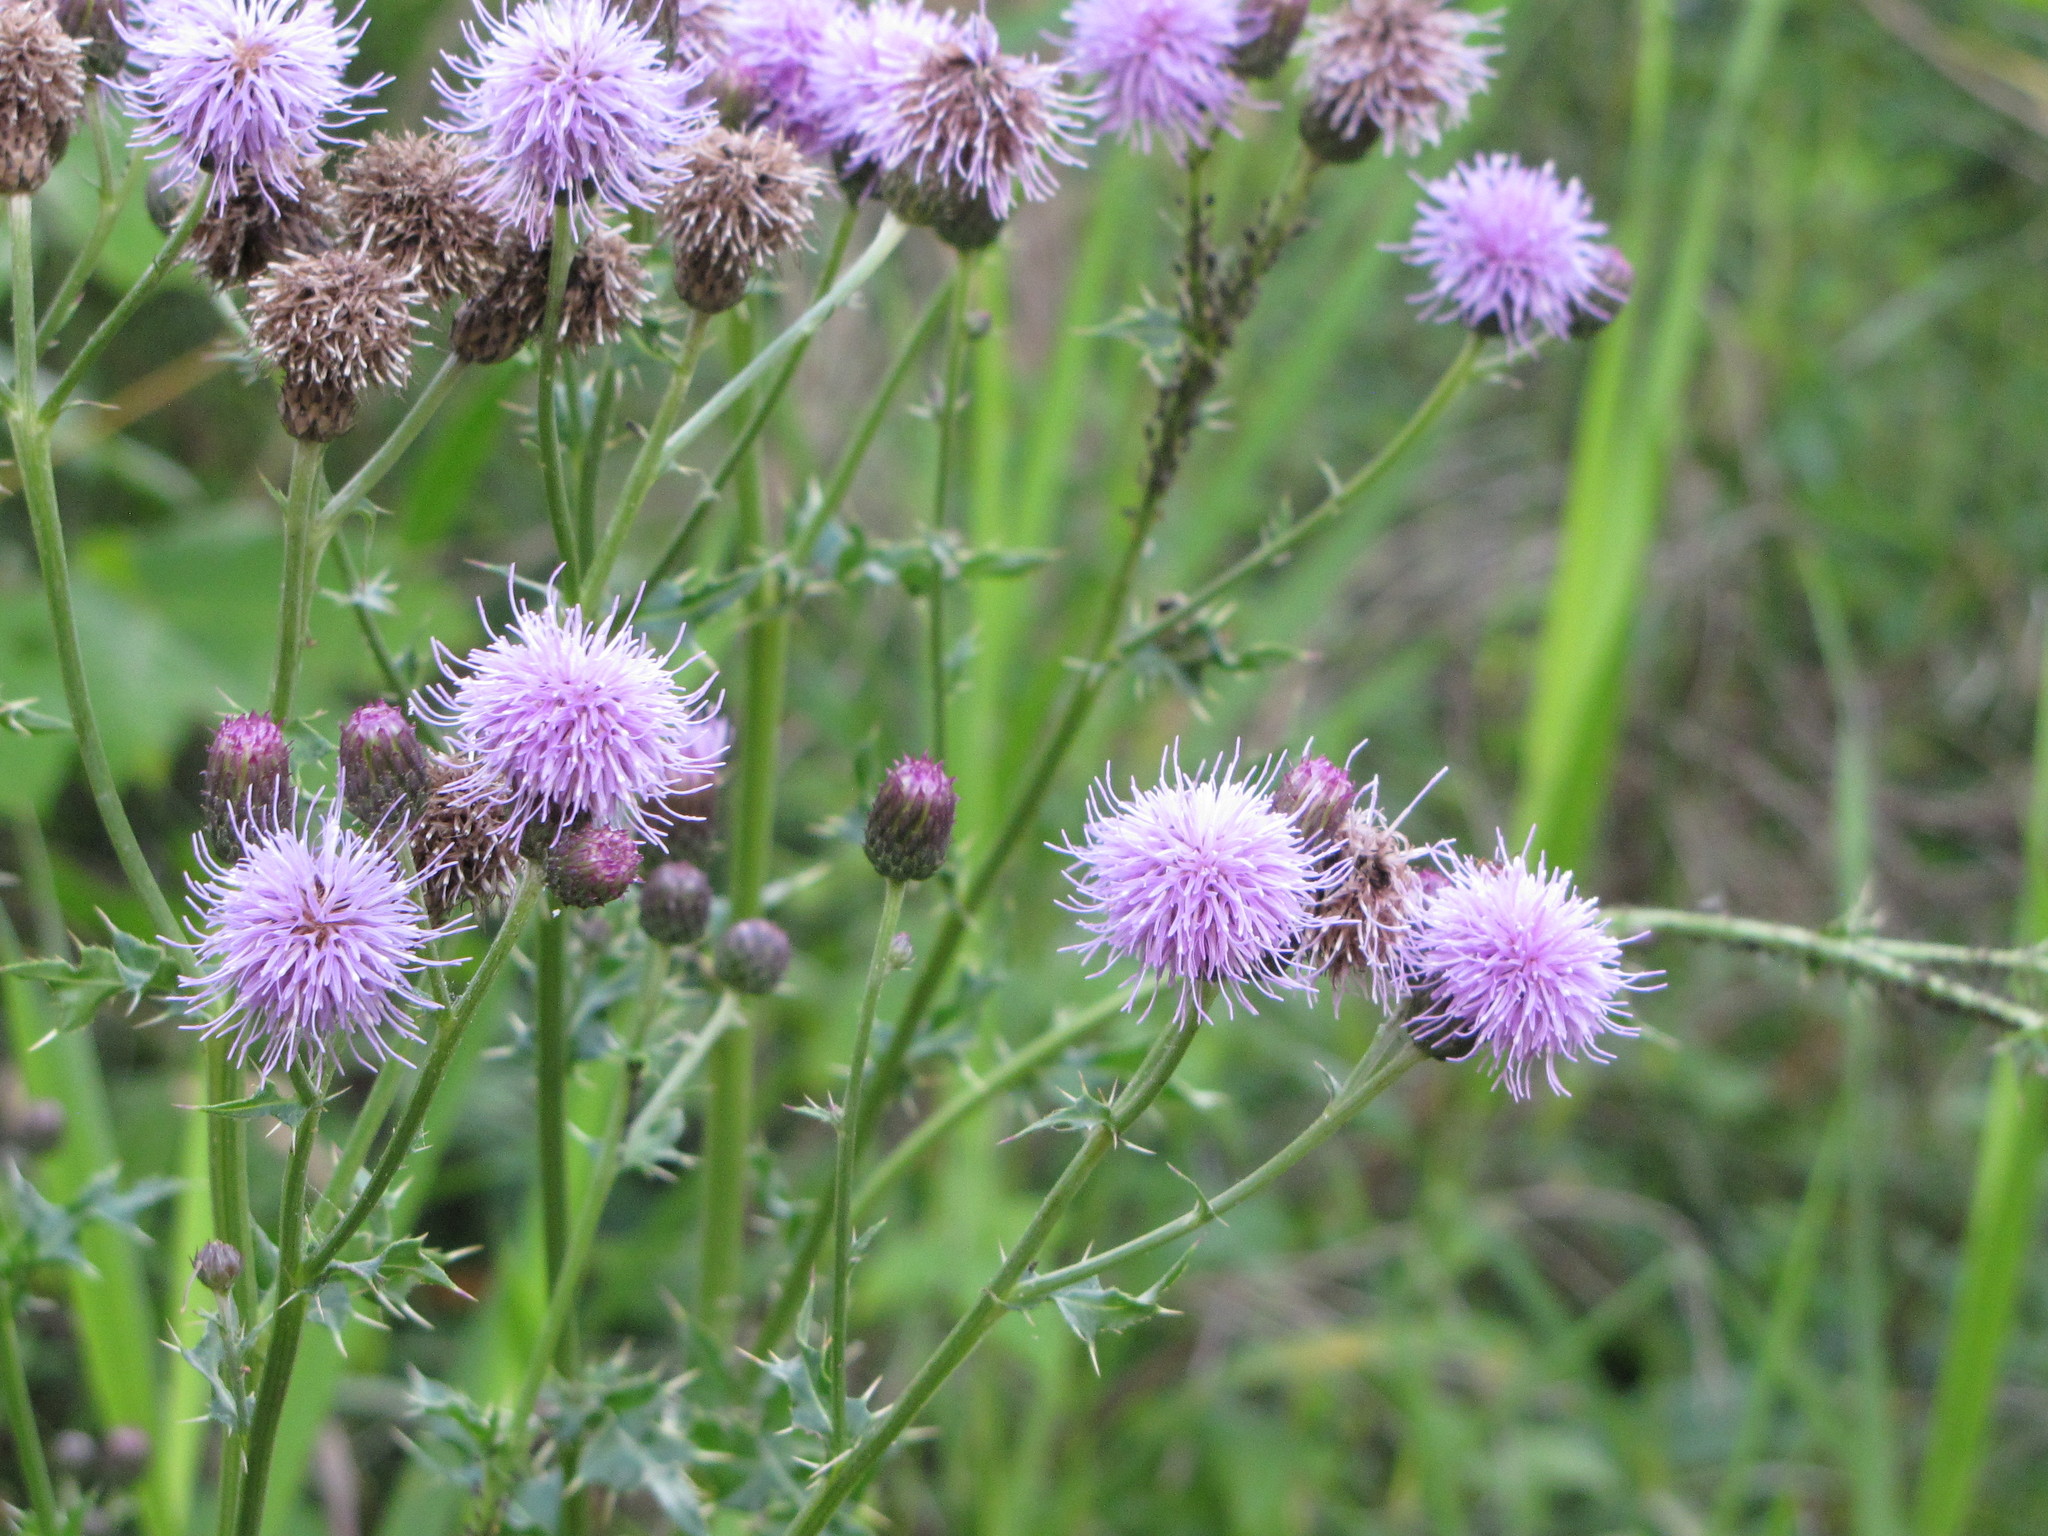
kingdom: Plantae
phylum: Tracheophyta
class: Magnoliopsida
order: Asterales
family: Asteraceae
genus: Cirsium
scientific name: Cirsium arvense
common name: Creeping thistle
